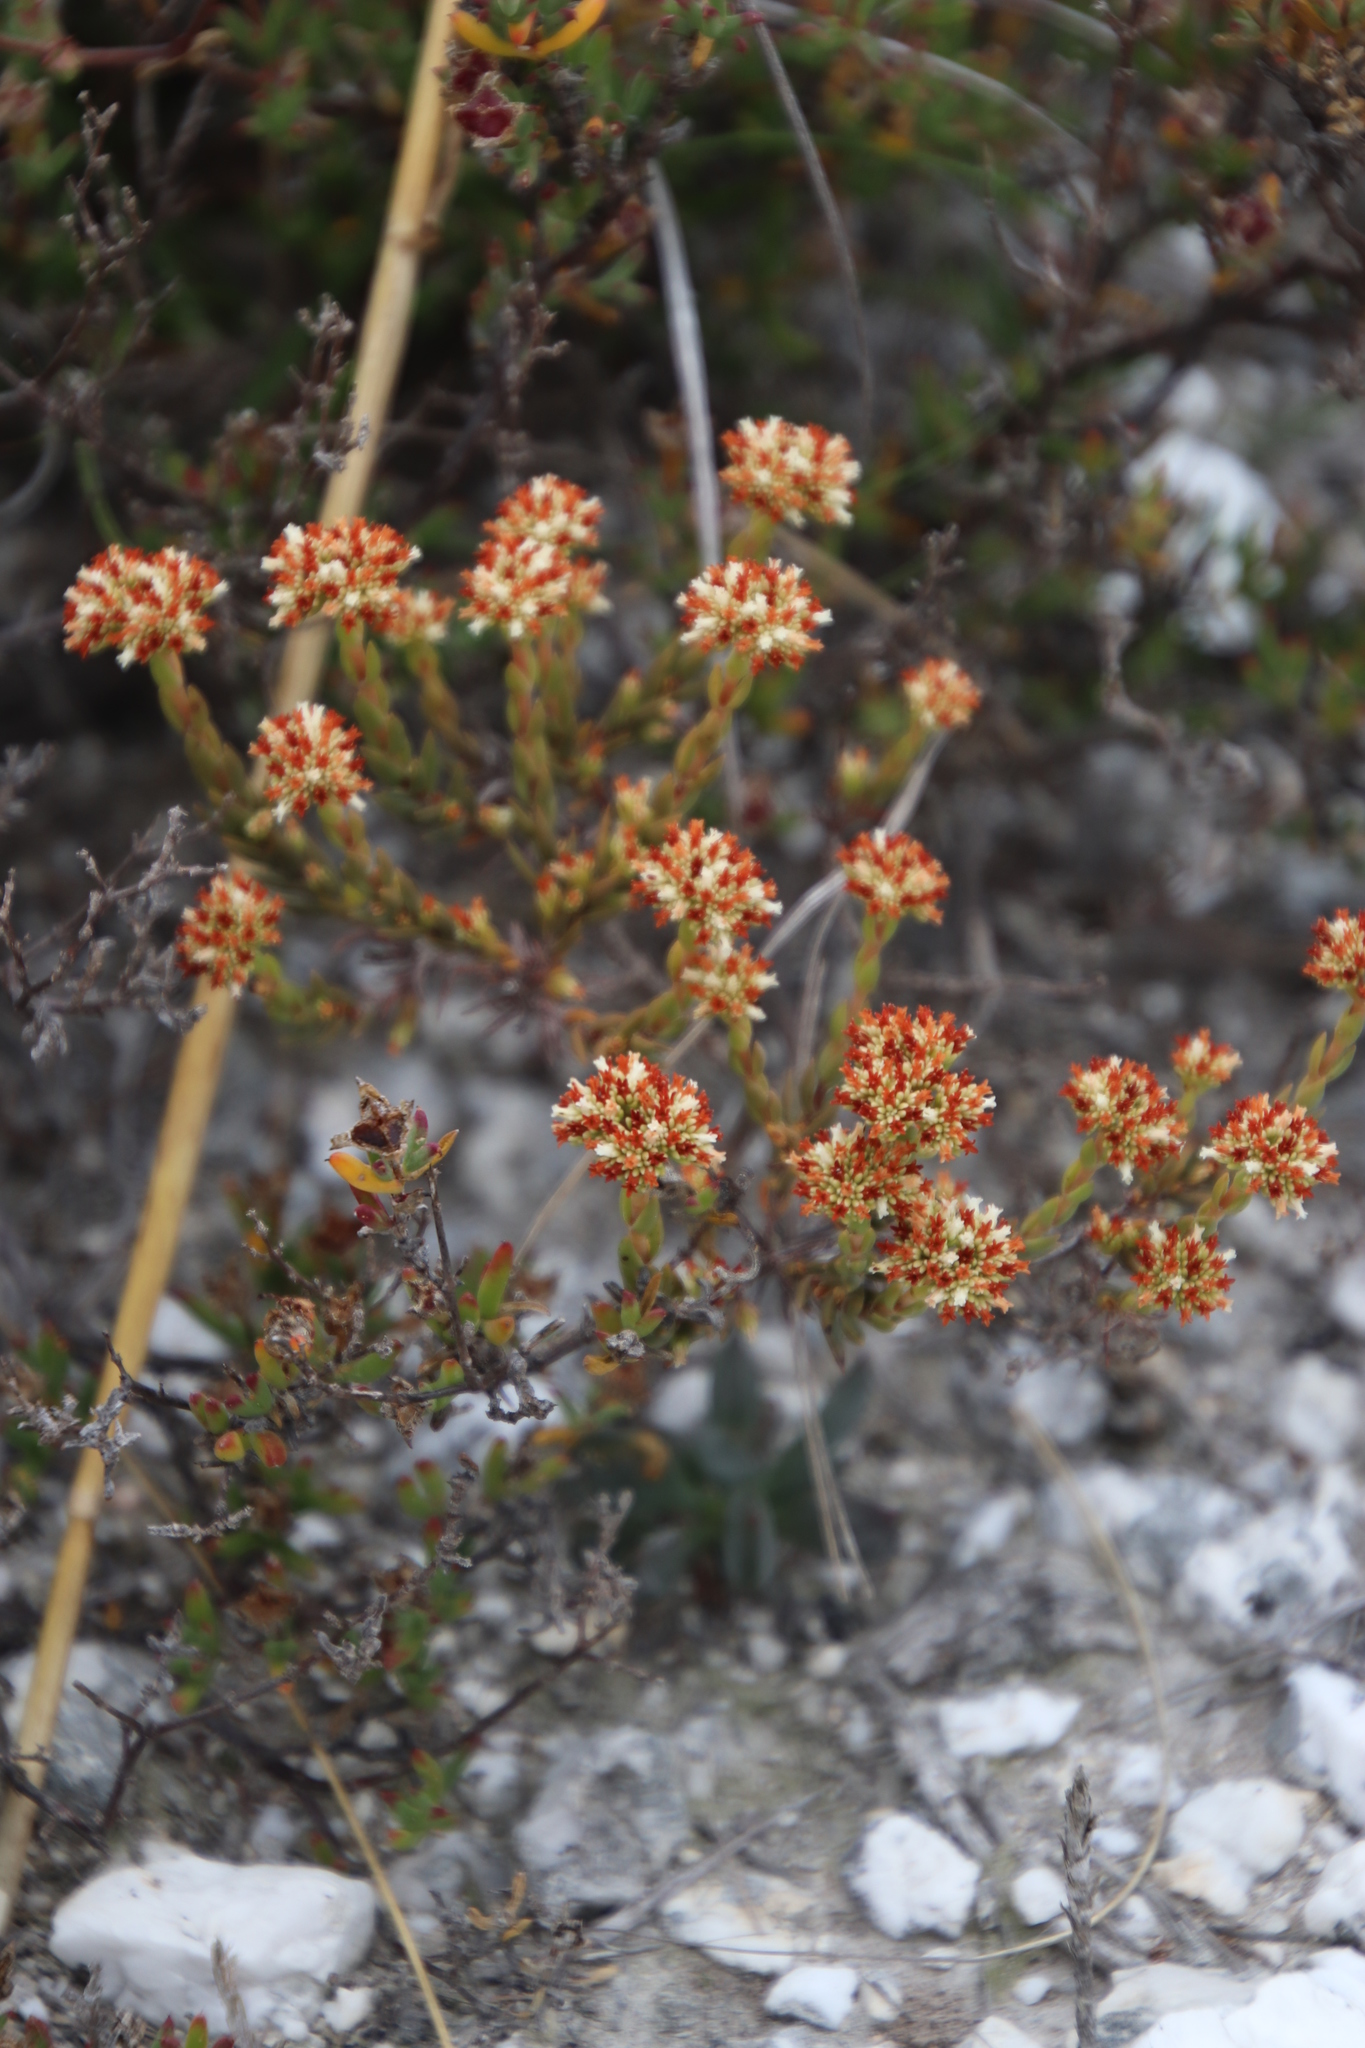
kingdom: Plantae
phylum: Tracheophyta
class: Magnoliopsida
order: Saxifragales
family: Crassulaceae
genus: Crassula
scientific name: Crassula subulata
